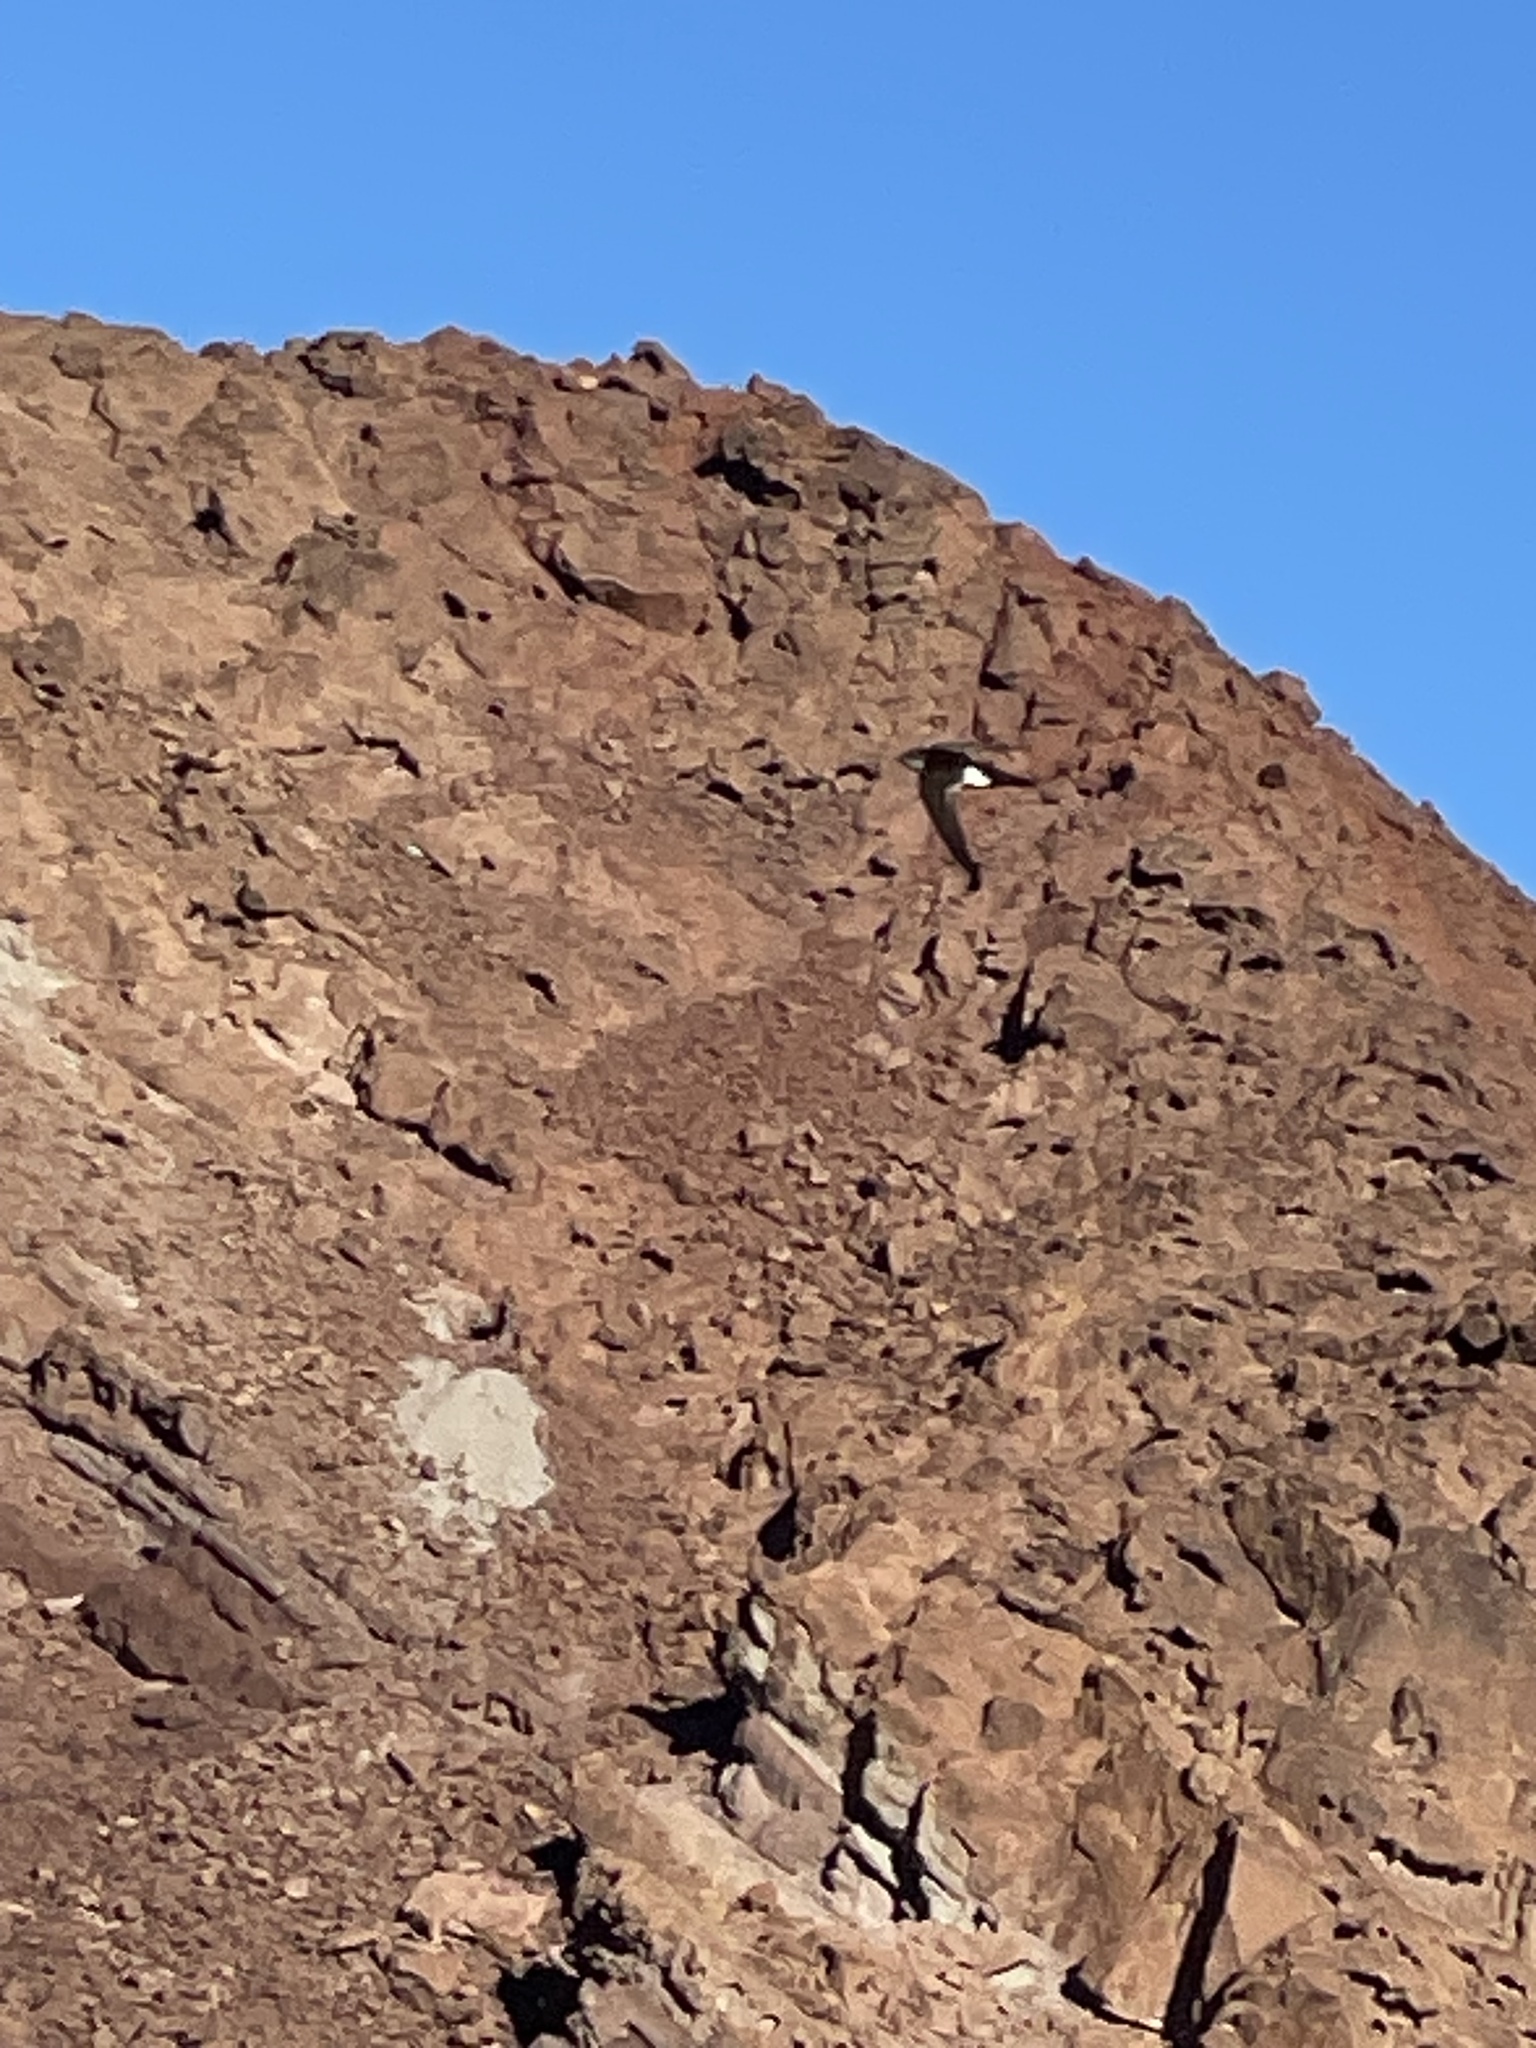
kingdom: Animalia
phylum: Chordata
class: Aves
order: Apodiformes
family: Apodidae
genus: Aeronautes
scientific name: Aeronautes saxatalis
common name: White-throated swift
